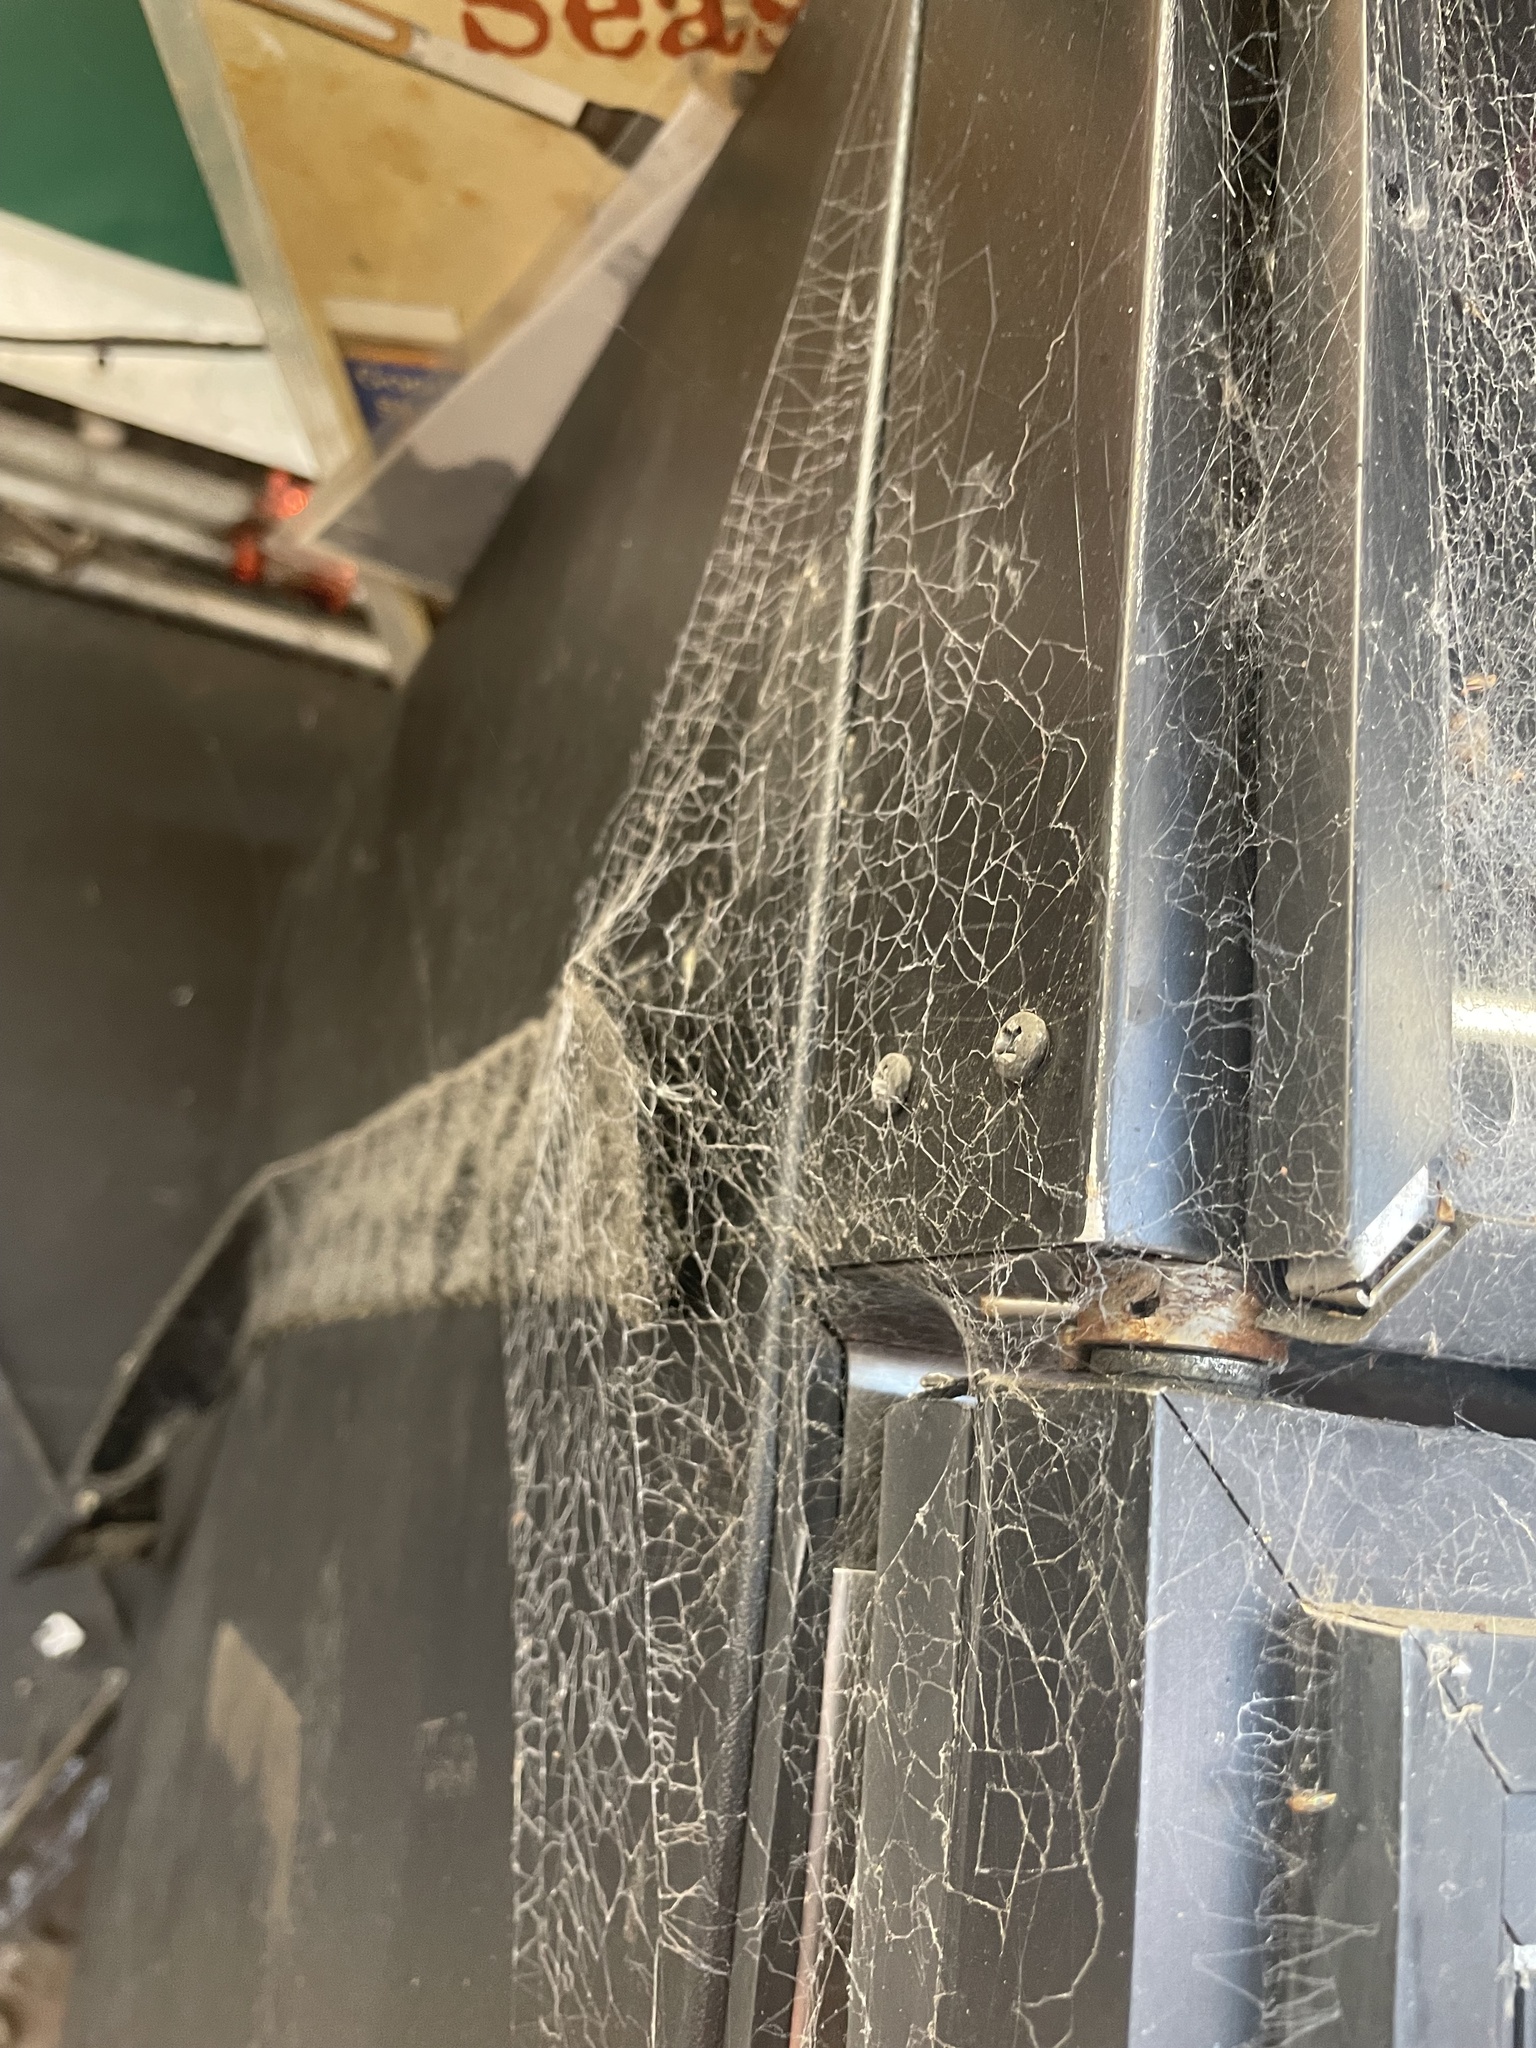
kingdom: Animalia
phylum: Arthropoda
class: Arachnida
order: Araneae
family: Desidae
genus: Badumna
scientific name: Badumna longinqua
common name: Gray house spider
